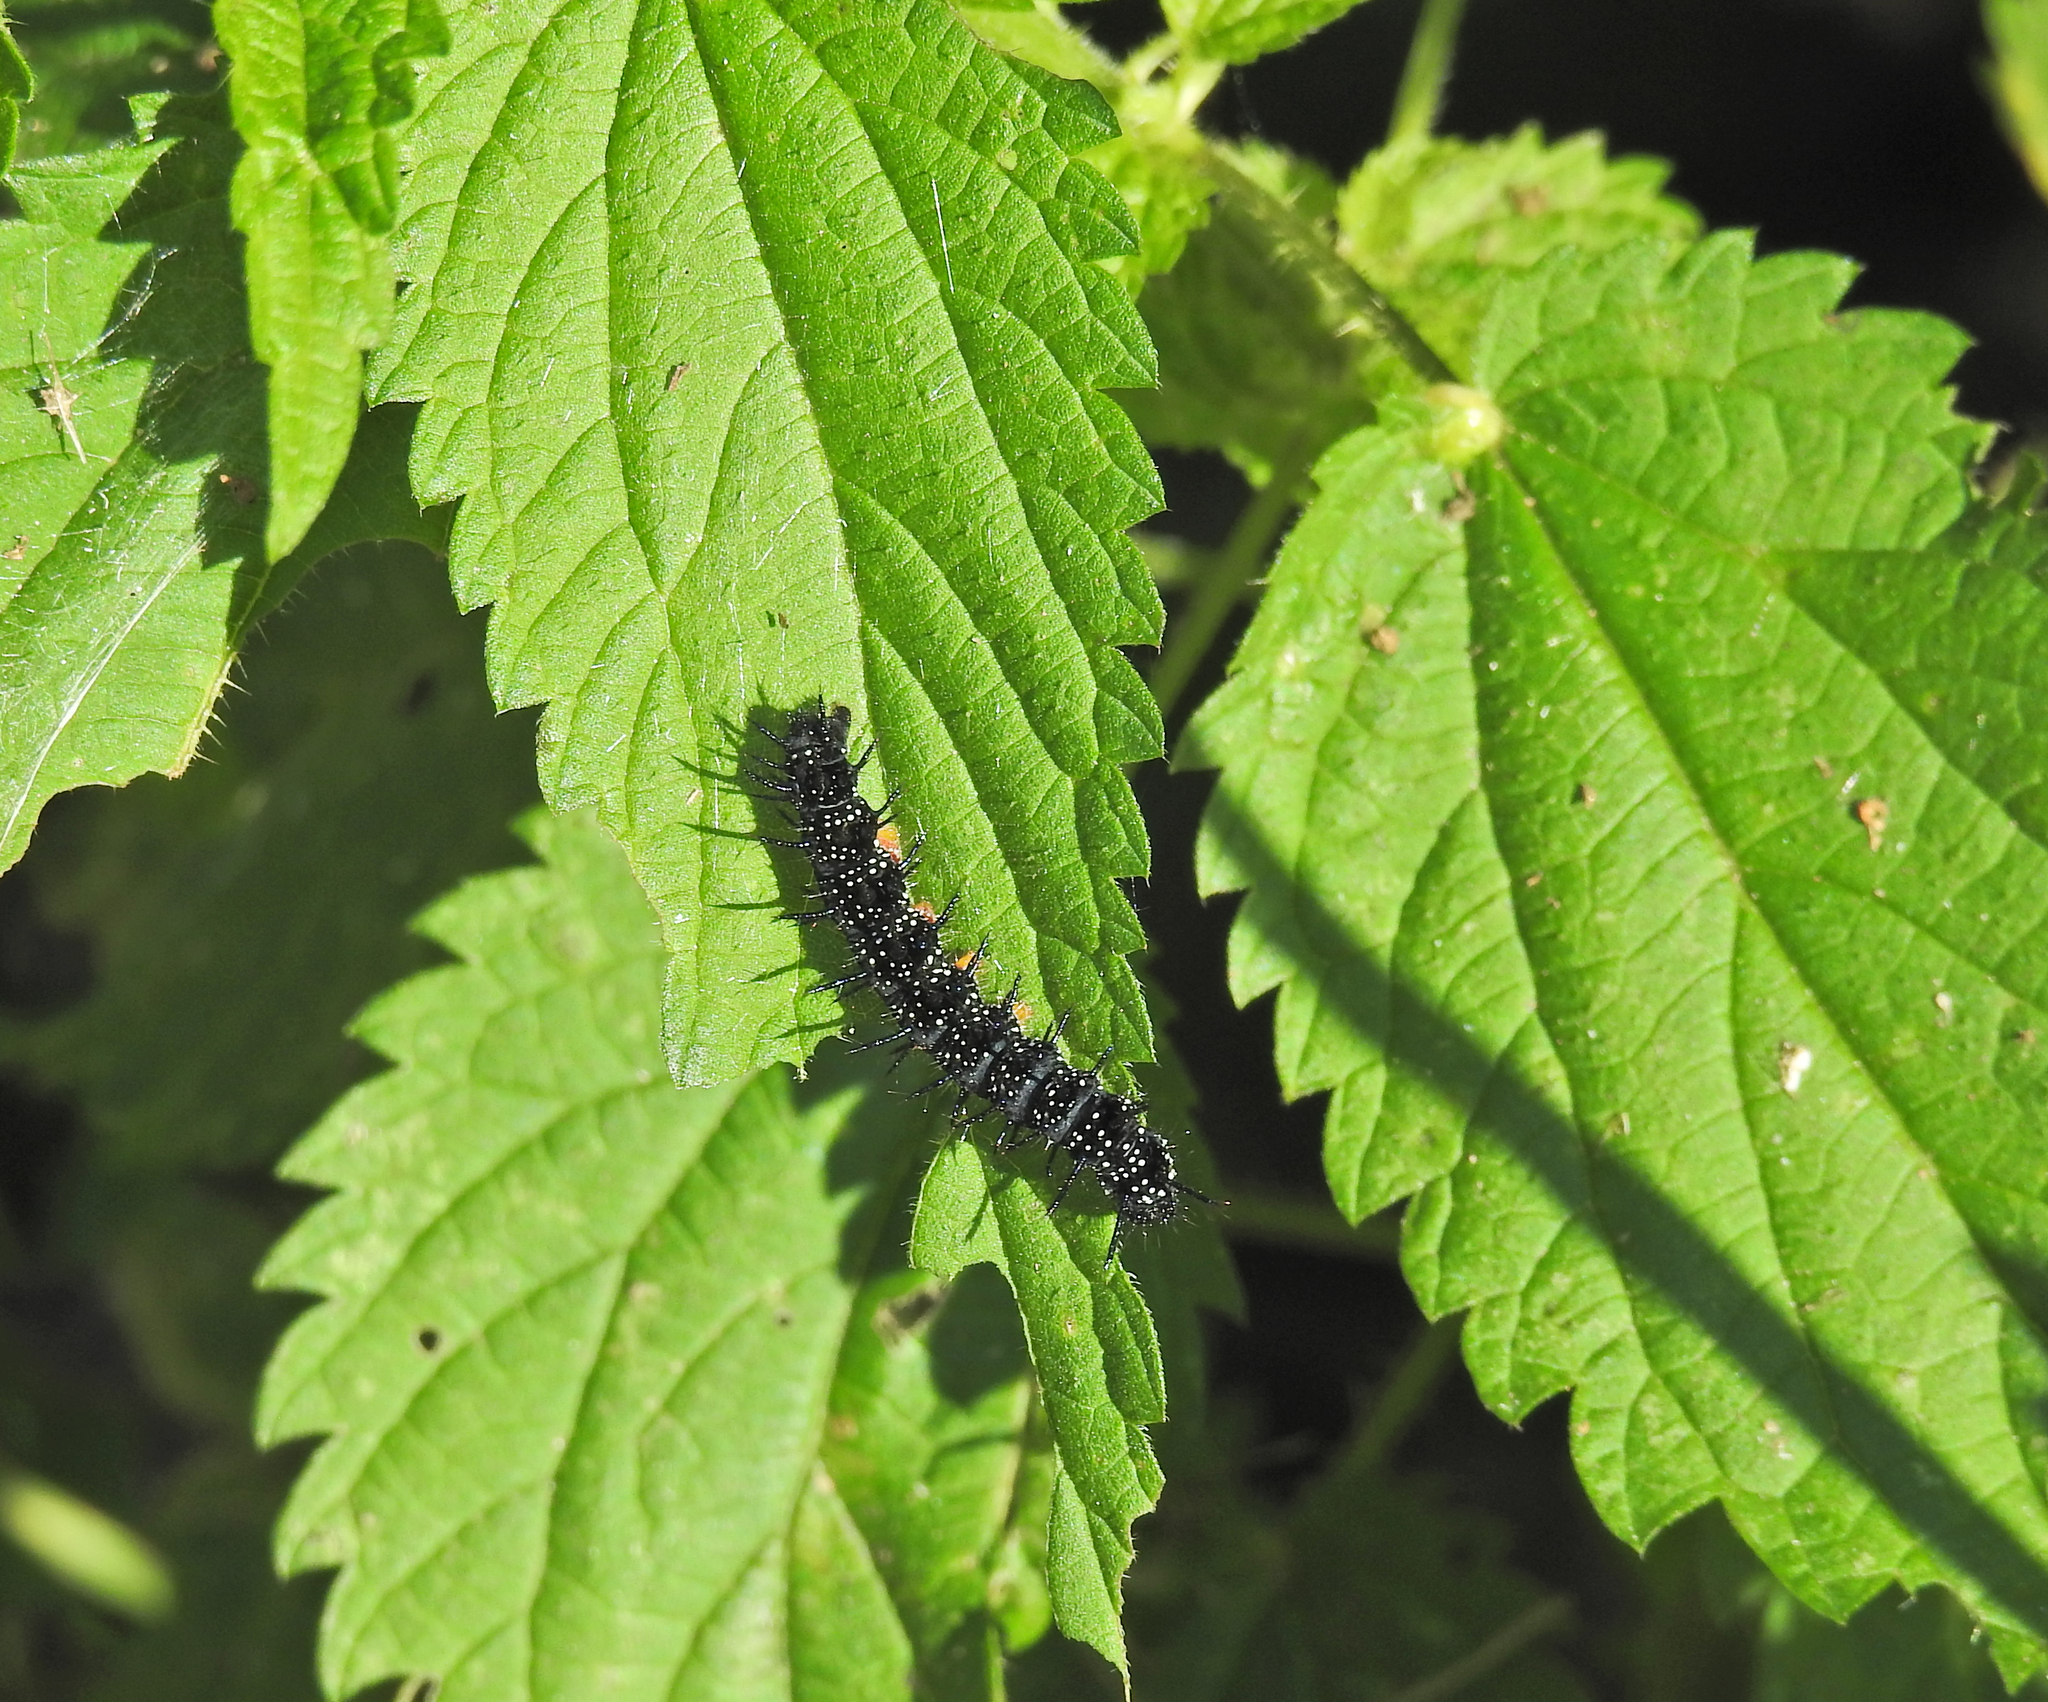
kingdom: Animalia
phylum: Arthropoda
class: Insecta
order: Lepidoptera
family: Nymphalidae
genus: Aglais
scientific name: Aglais io
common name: Peacock
